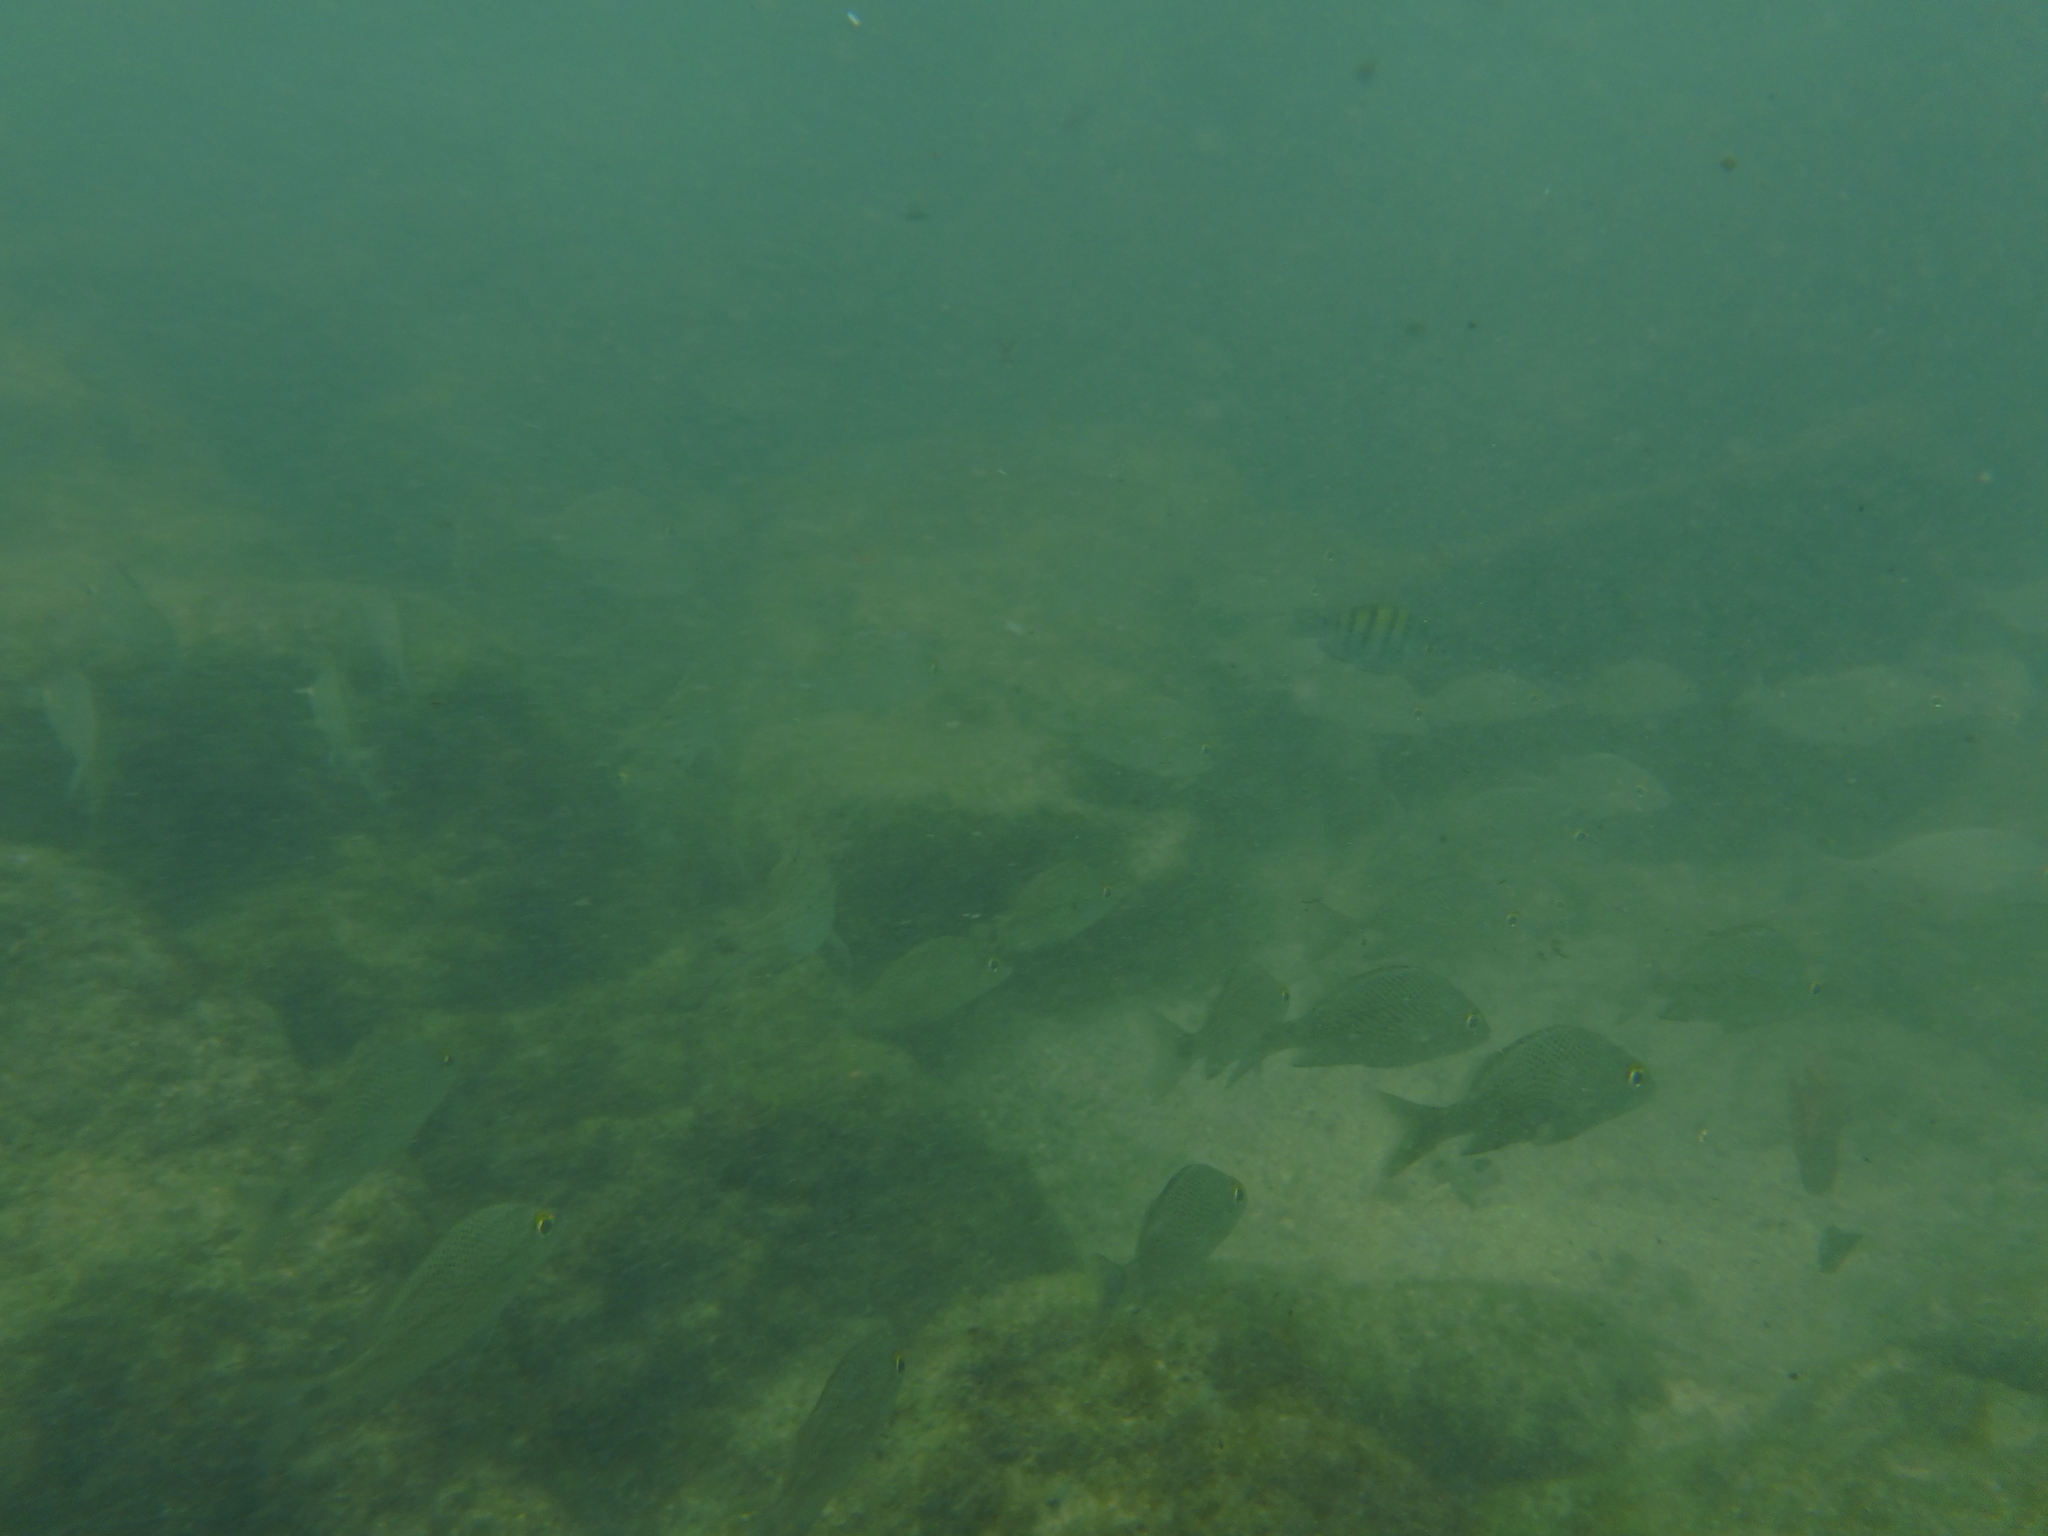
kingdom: Animalia
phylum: Chordata
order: Perciformes
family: Pomacentridae
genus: Abudefduf
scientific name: Abudefduf troschelii
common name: Panamic sergeant major
